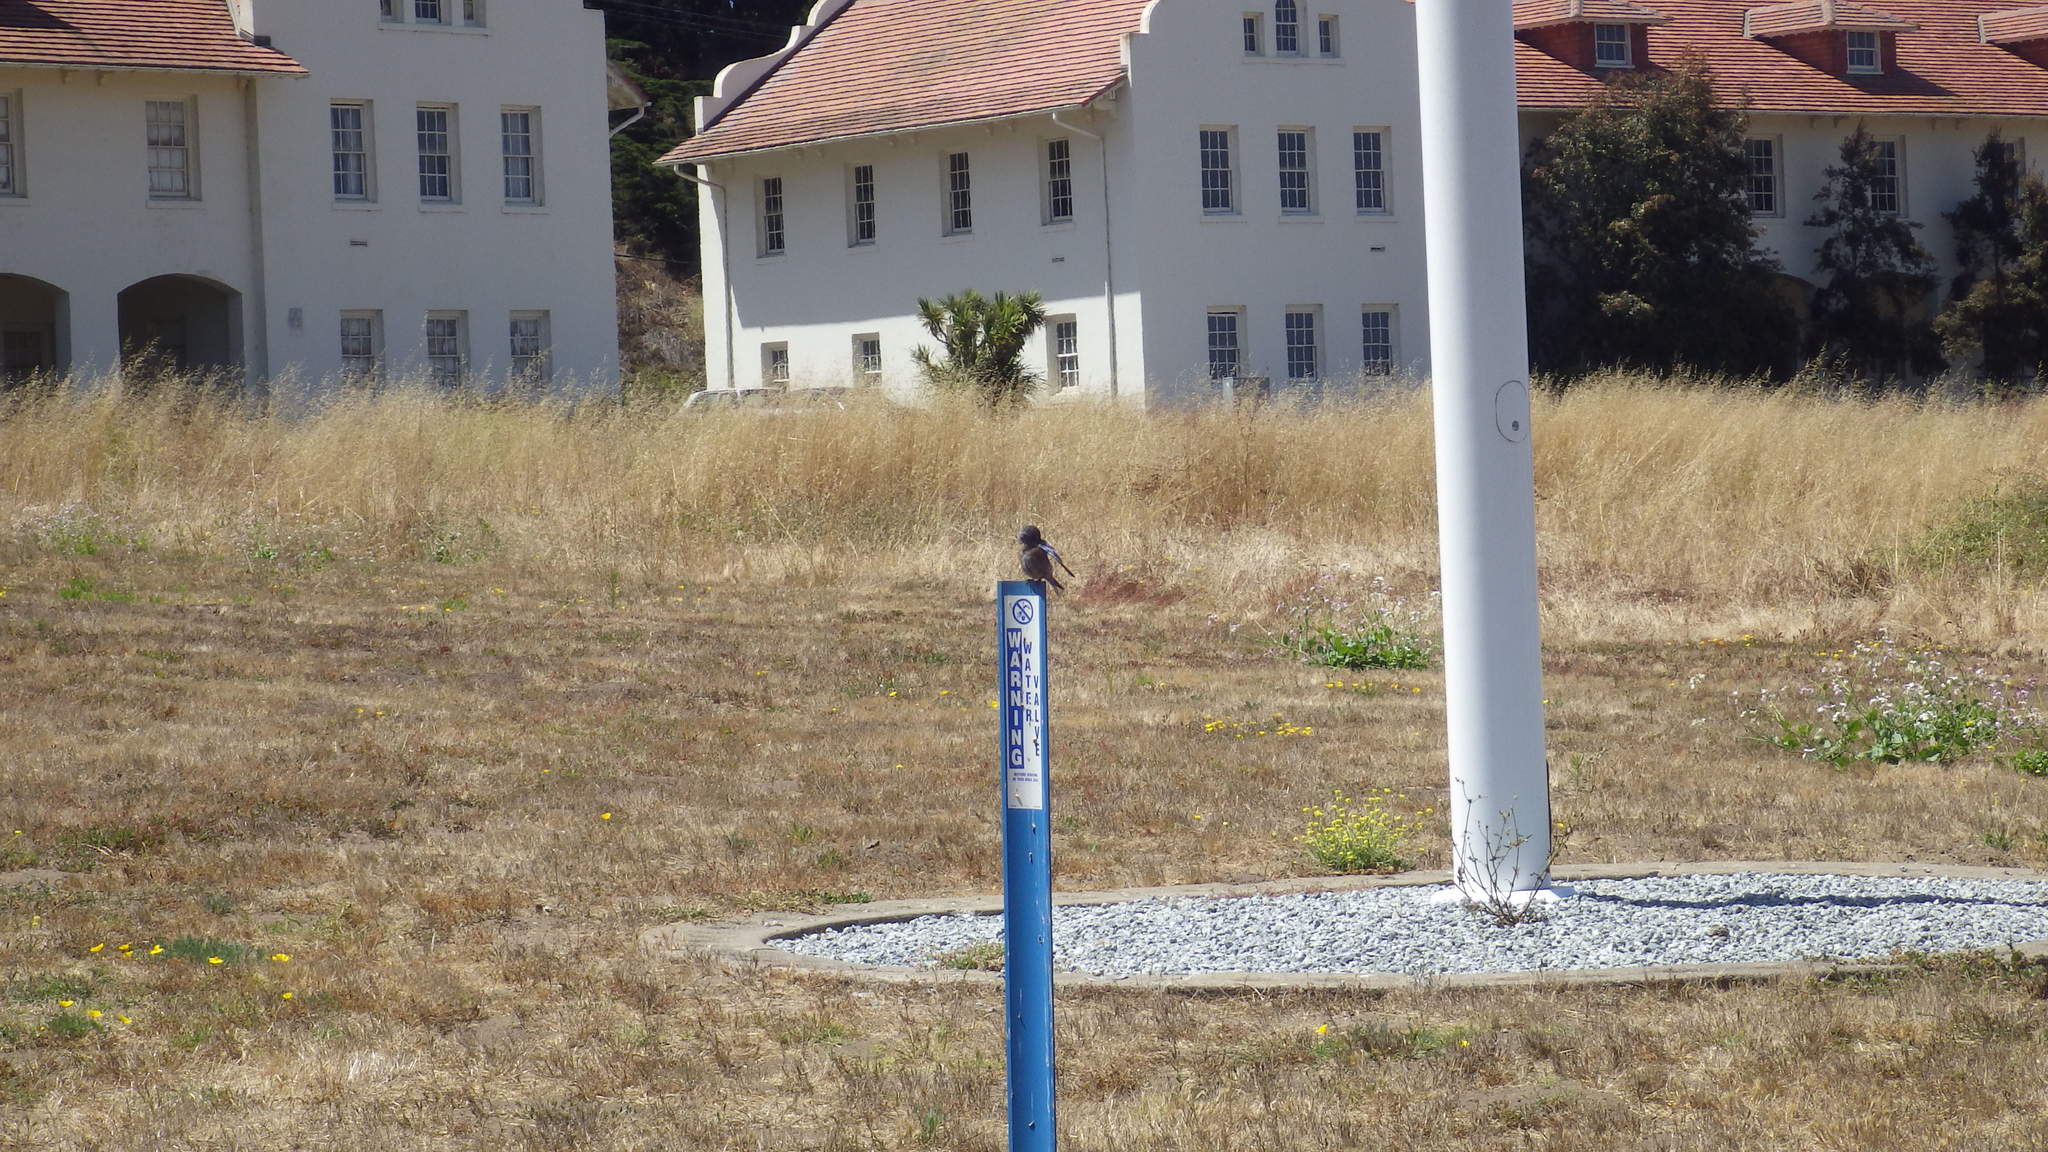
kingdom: Animalia
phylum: Chordata
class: Aves
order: Passeriformes
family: Turdidae
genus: Sialia
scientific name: Sialia mexicana
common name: Western bluebird
